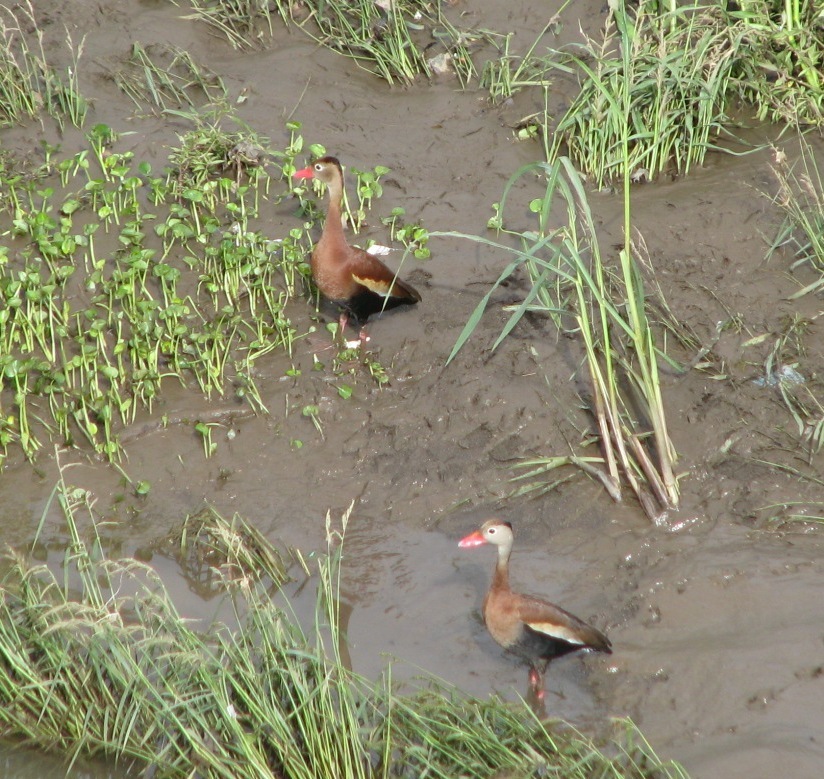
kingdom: Animalia
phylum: Chordata
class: Aves
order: Anseriformes
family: Anatidae
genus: Dendrocygna
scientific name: Dendrocygna autumnalis
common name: Black-bellied whistling duck
